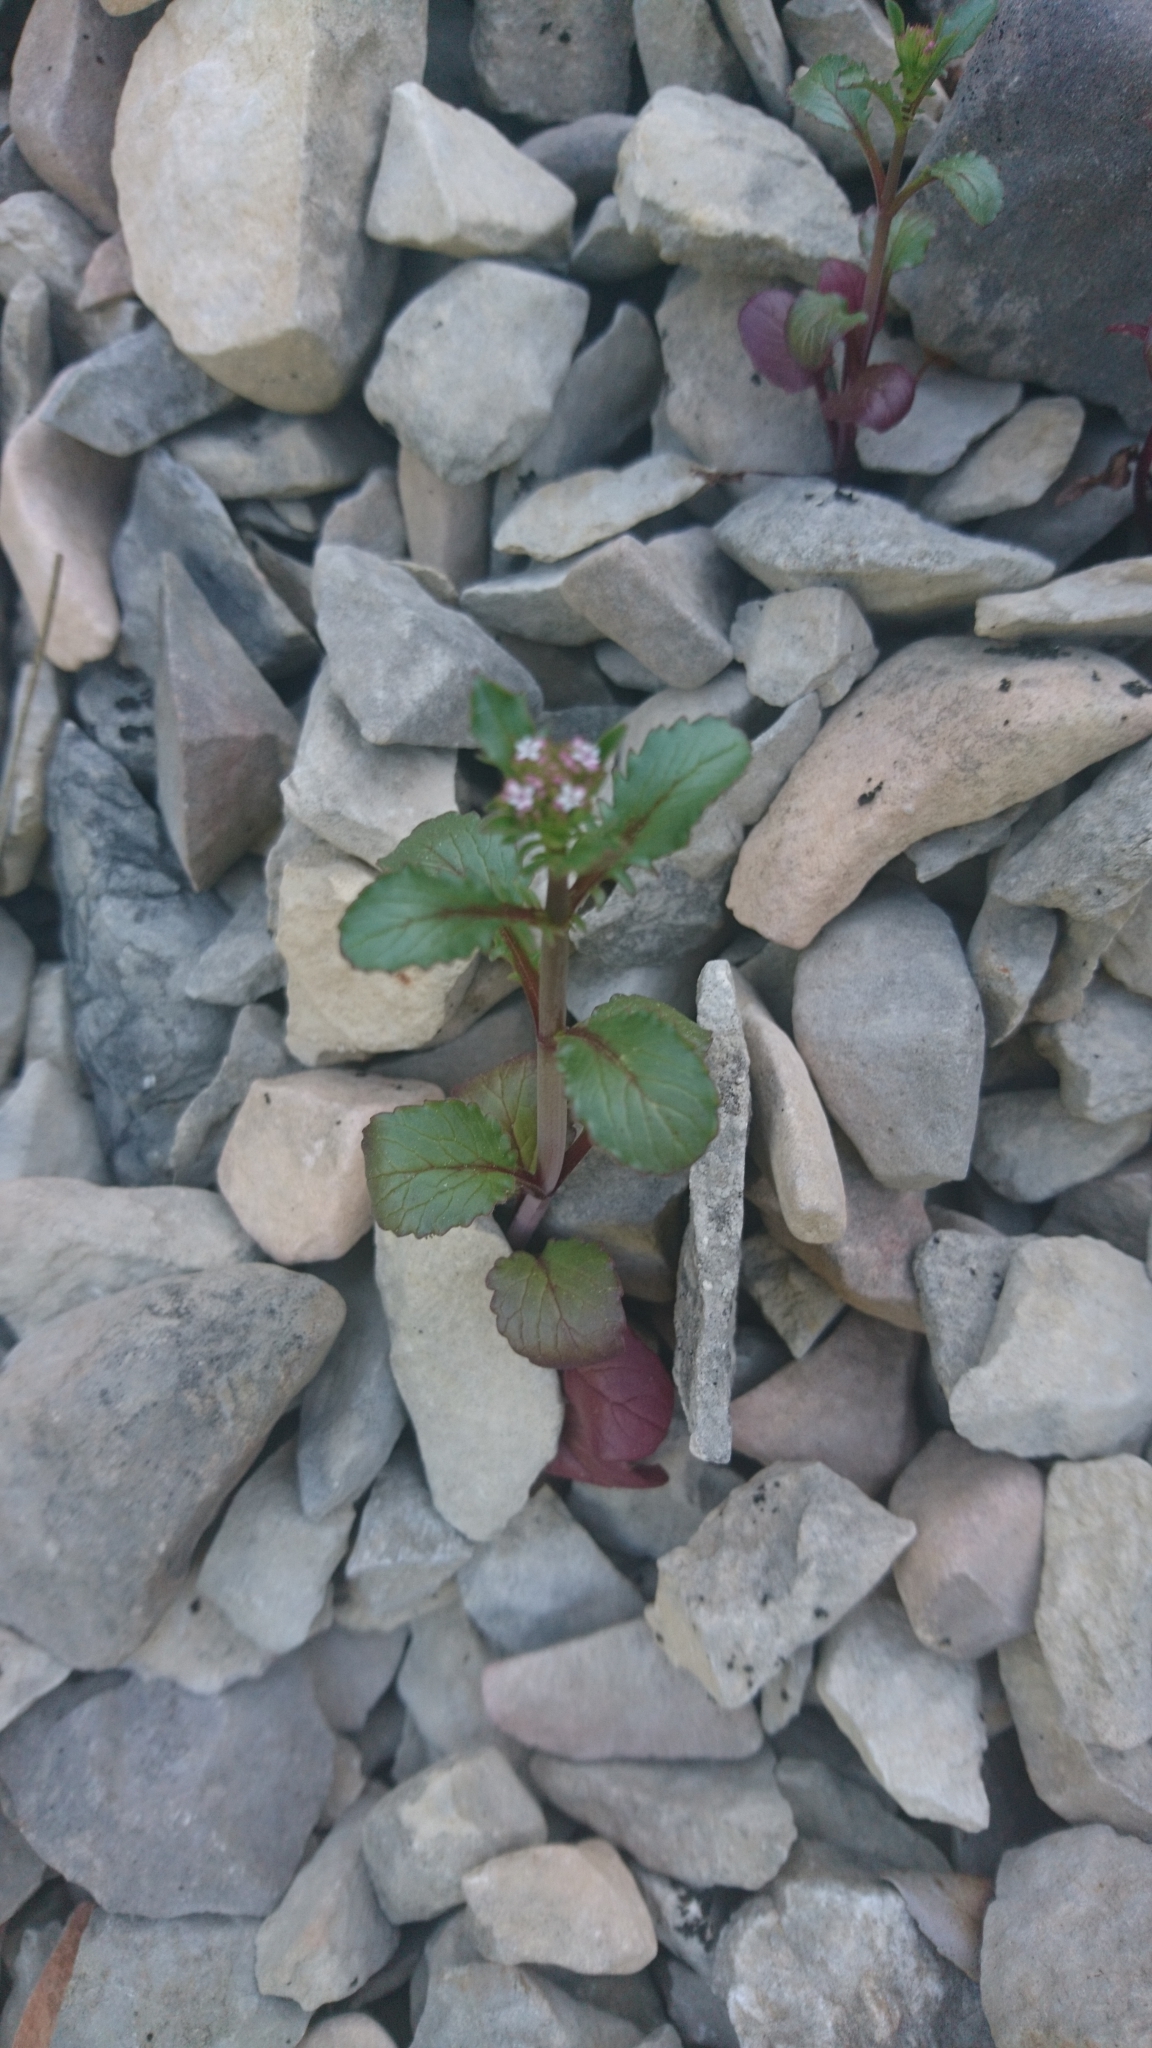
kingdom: Plantae
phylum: Tracheophyta
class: Magnoliopsida
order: Dipsacales
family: Caprifoliaceae
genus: Centranthus
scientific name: Centranthus calcitrapae
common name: Annual valerian
